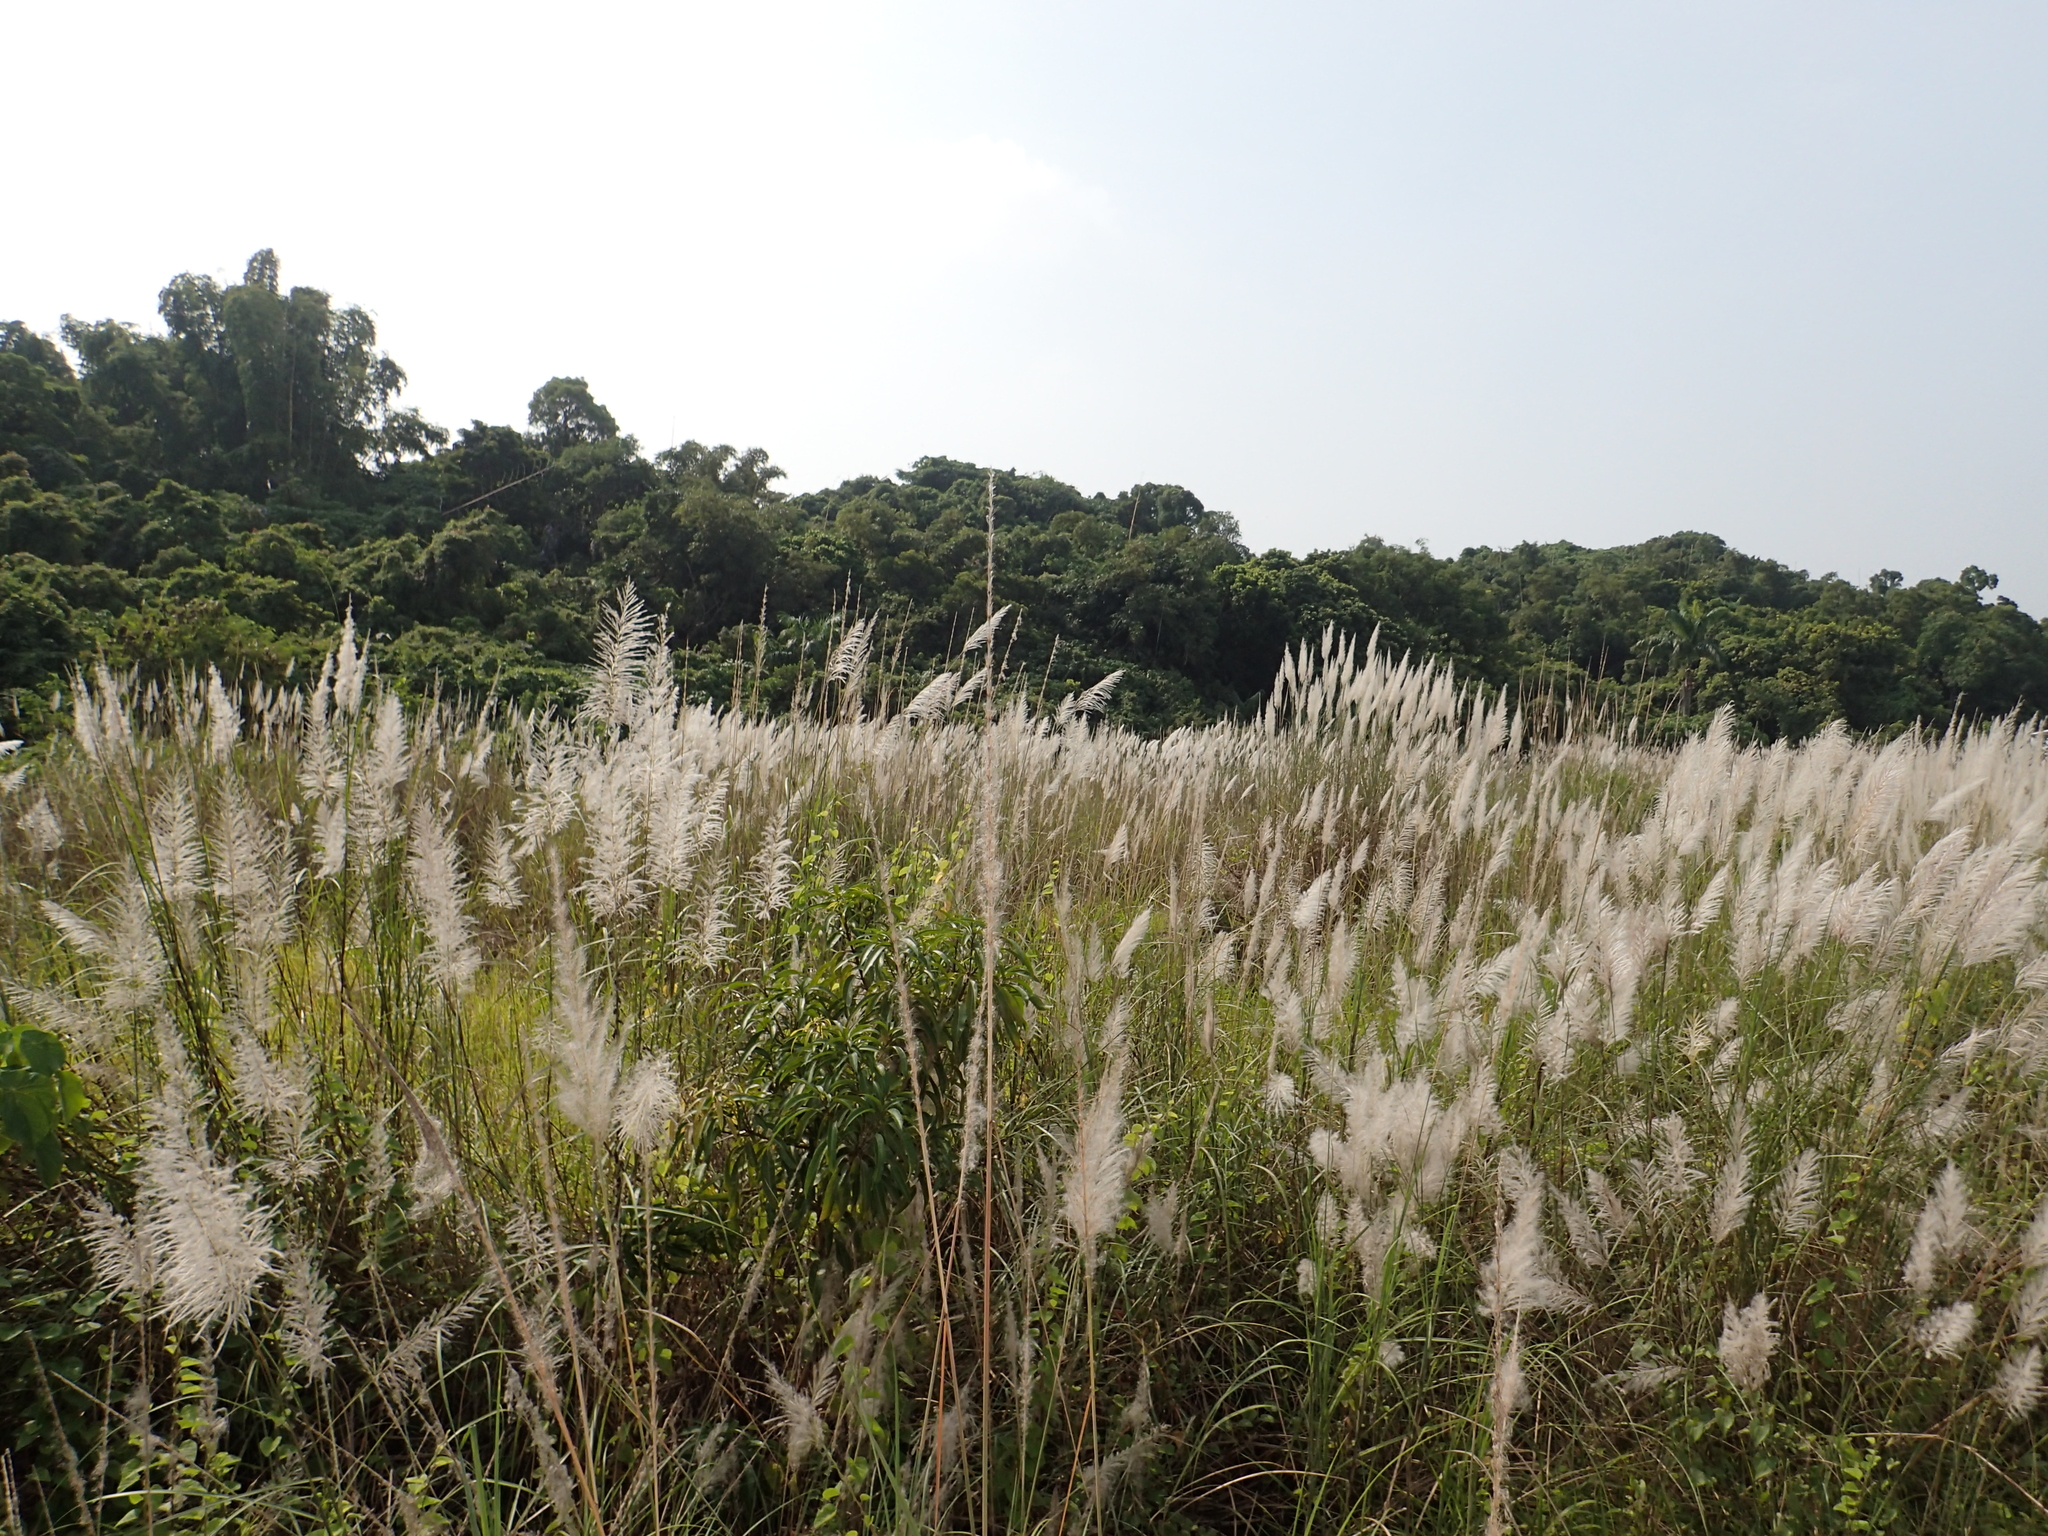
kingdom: Plantae
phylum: Tracheophyta
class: Liliopsida
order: Poales
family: Poaceae
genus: Saccharum
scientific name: Saccharum spontaneum
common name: Wild sugarcane
